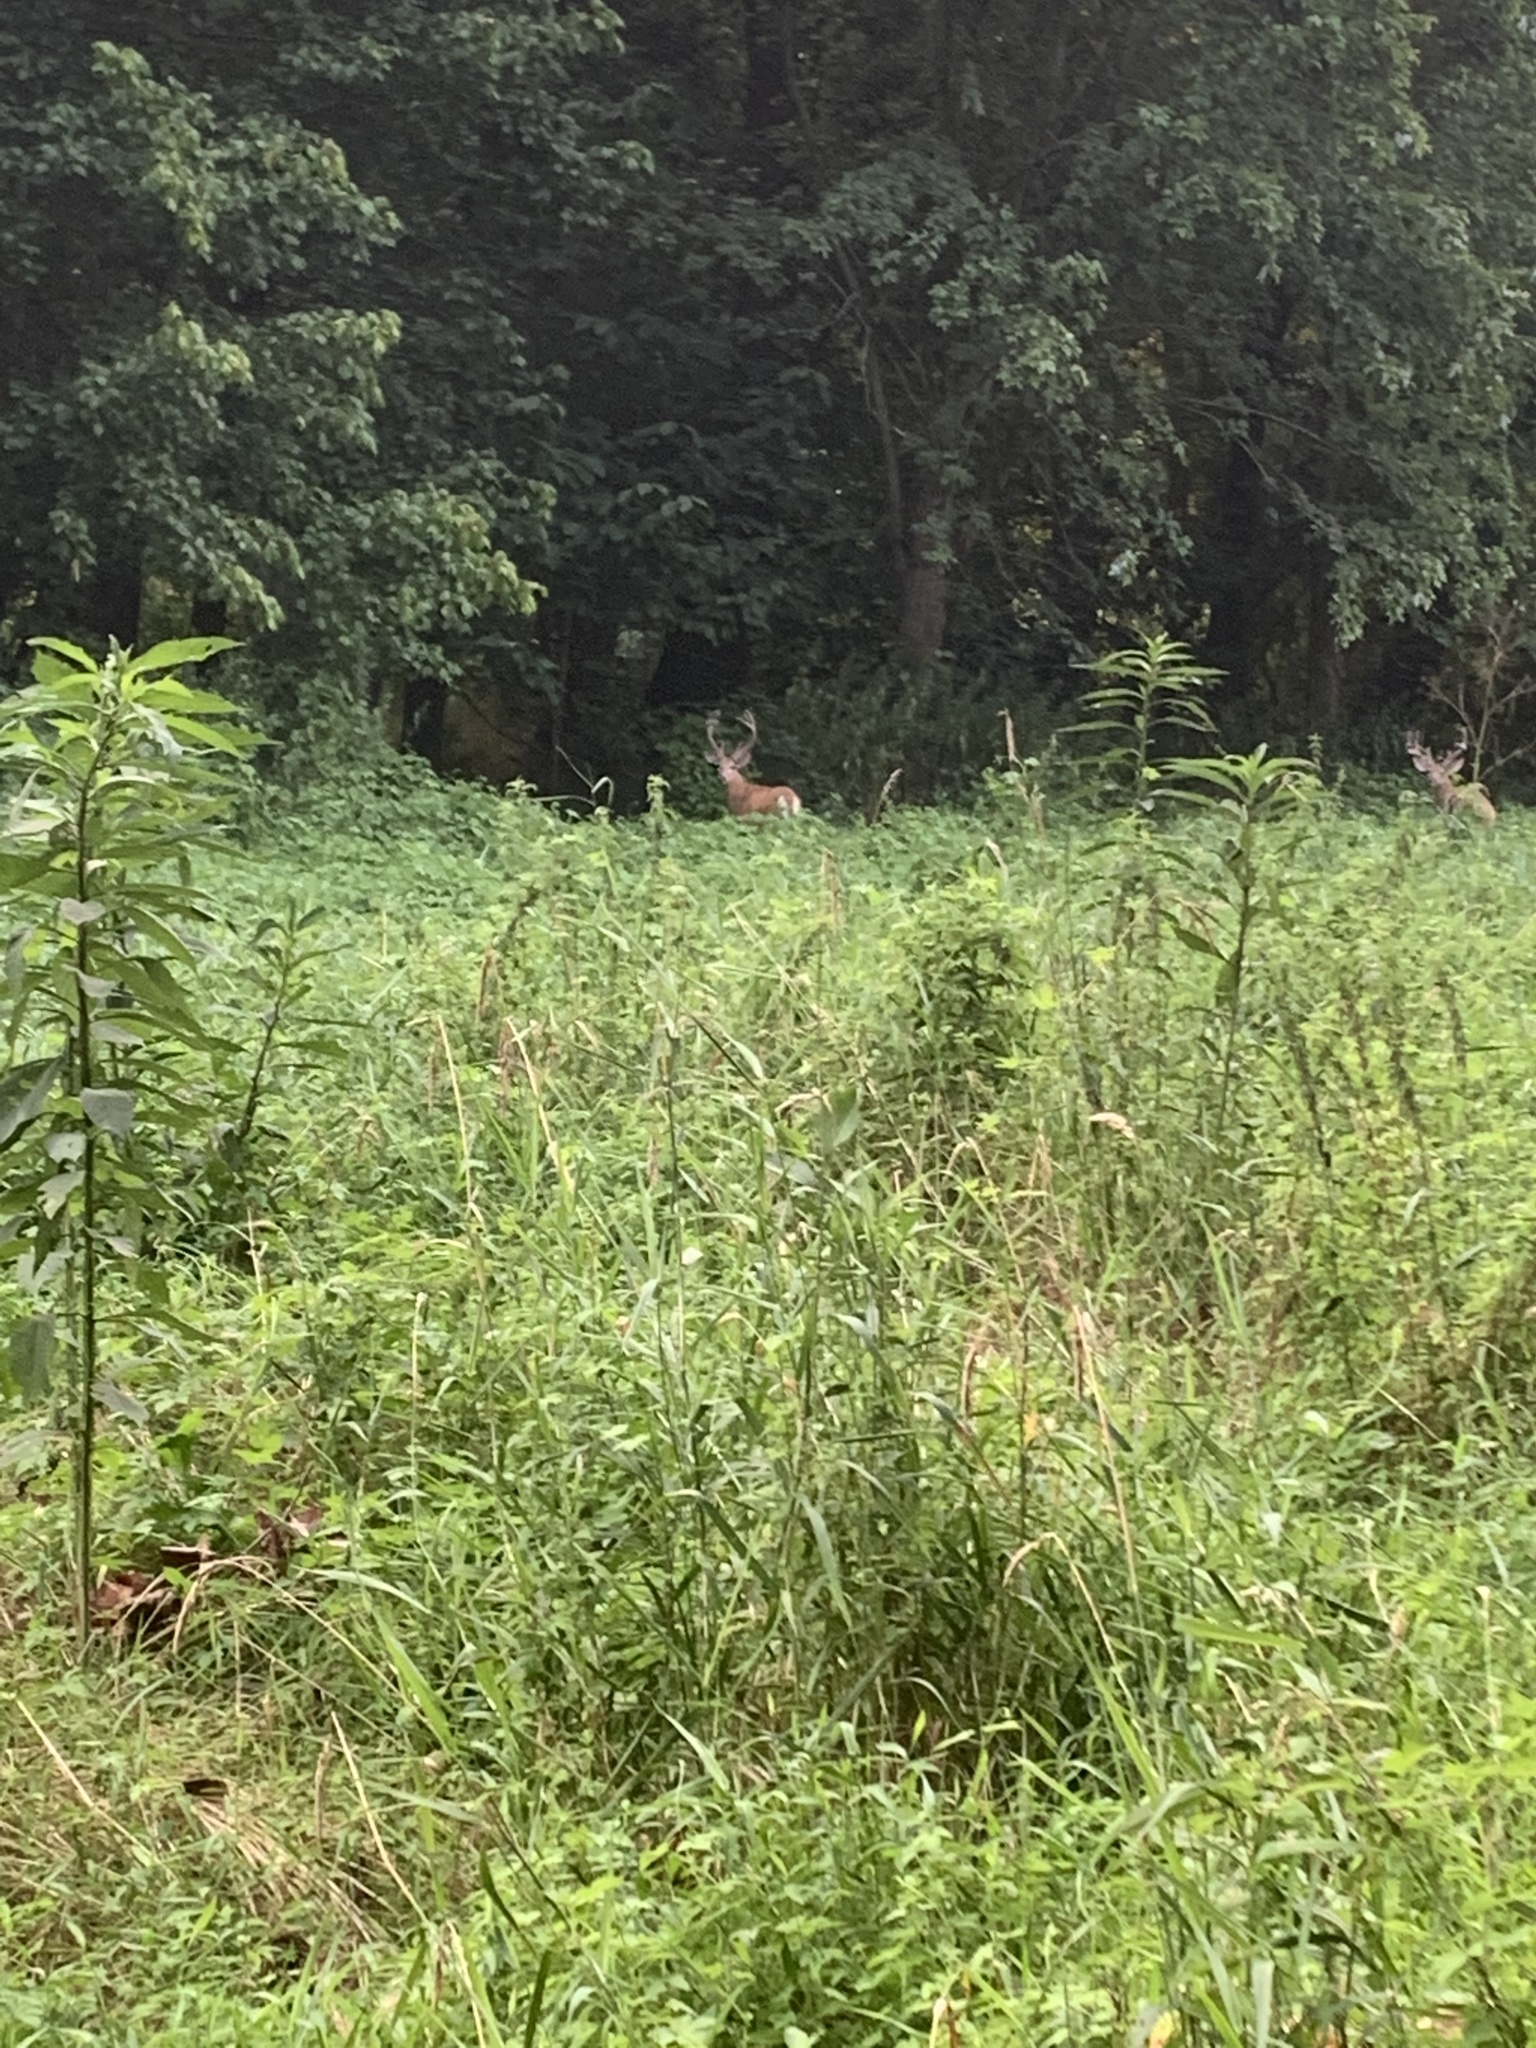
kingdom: Animalia
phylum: Chordata
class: Mammalia
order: Artiodactyla
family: Cervidae
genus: Odocoileus
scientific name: Odocoileus virginianus
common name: White-tailed deer
